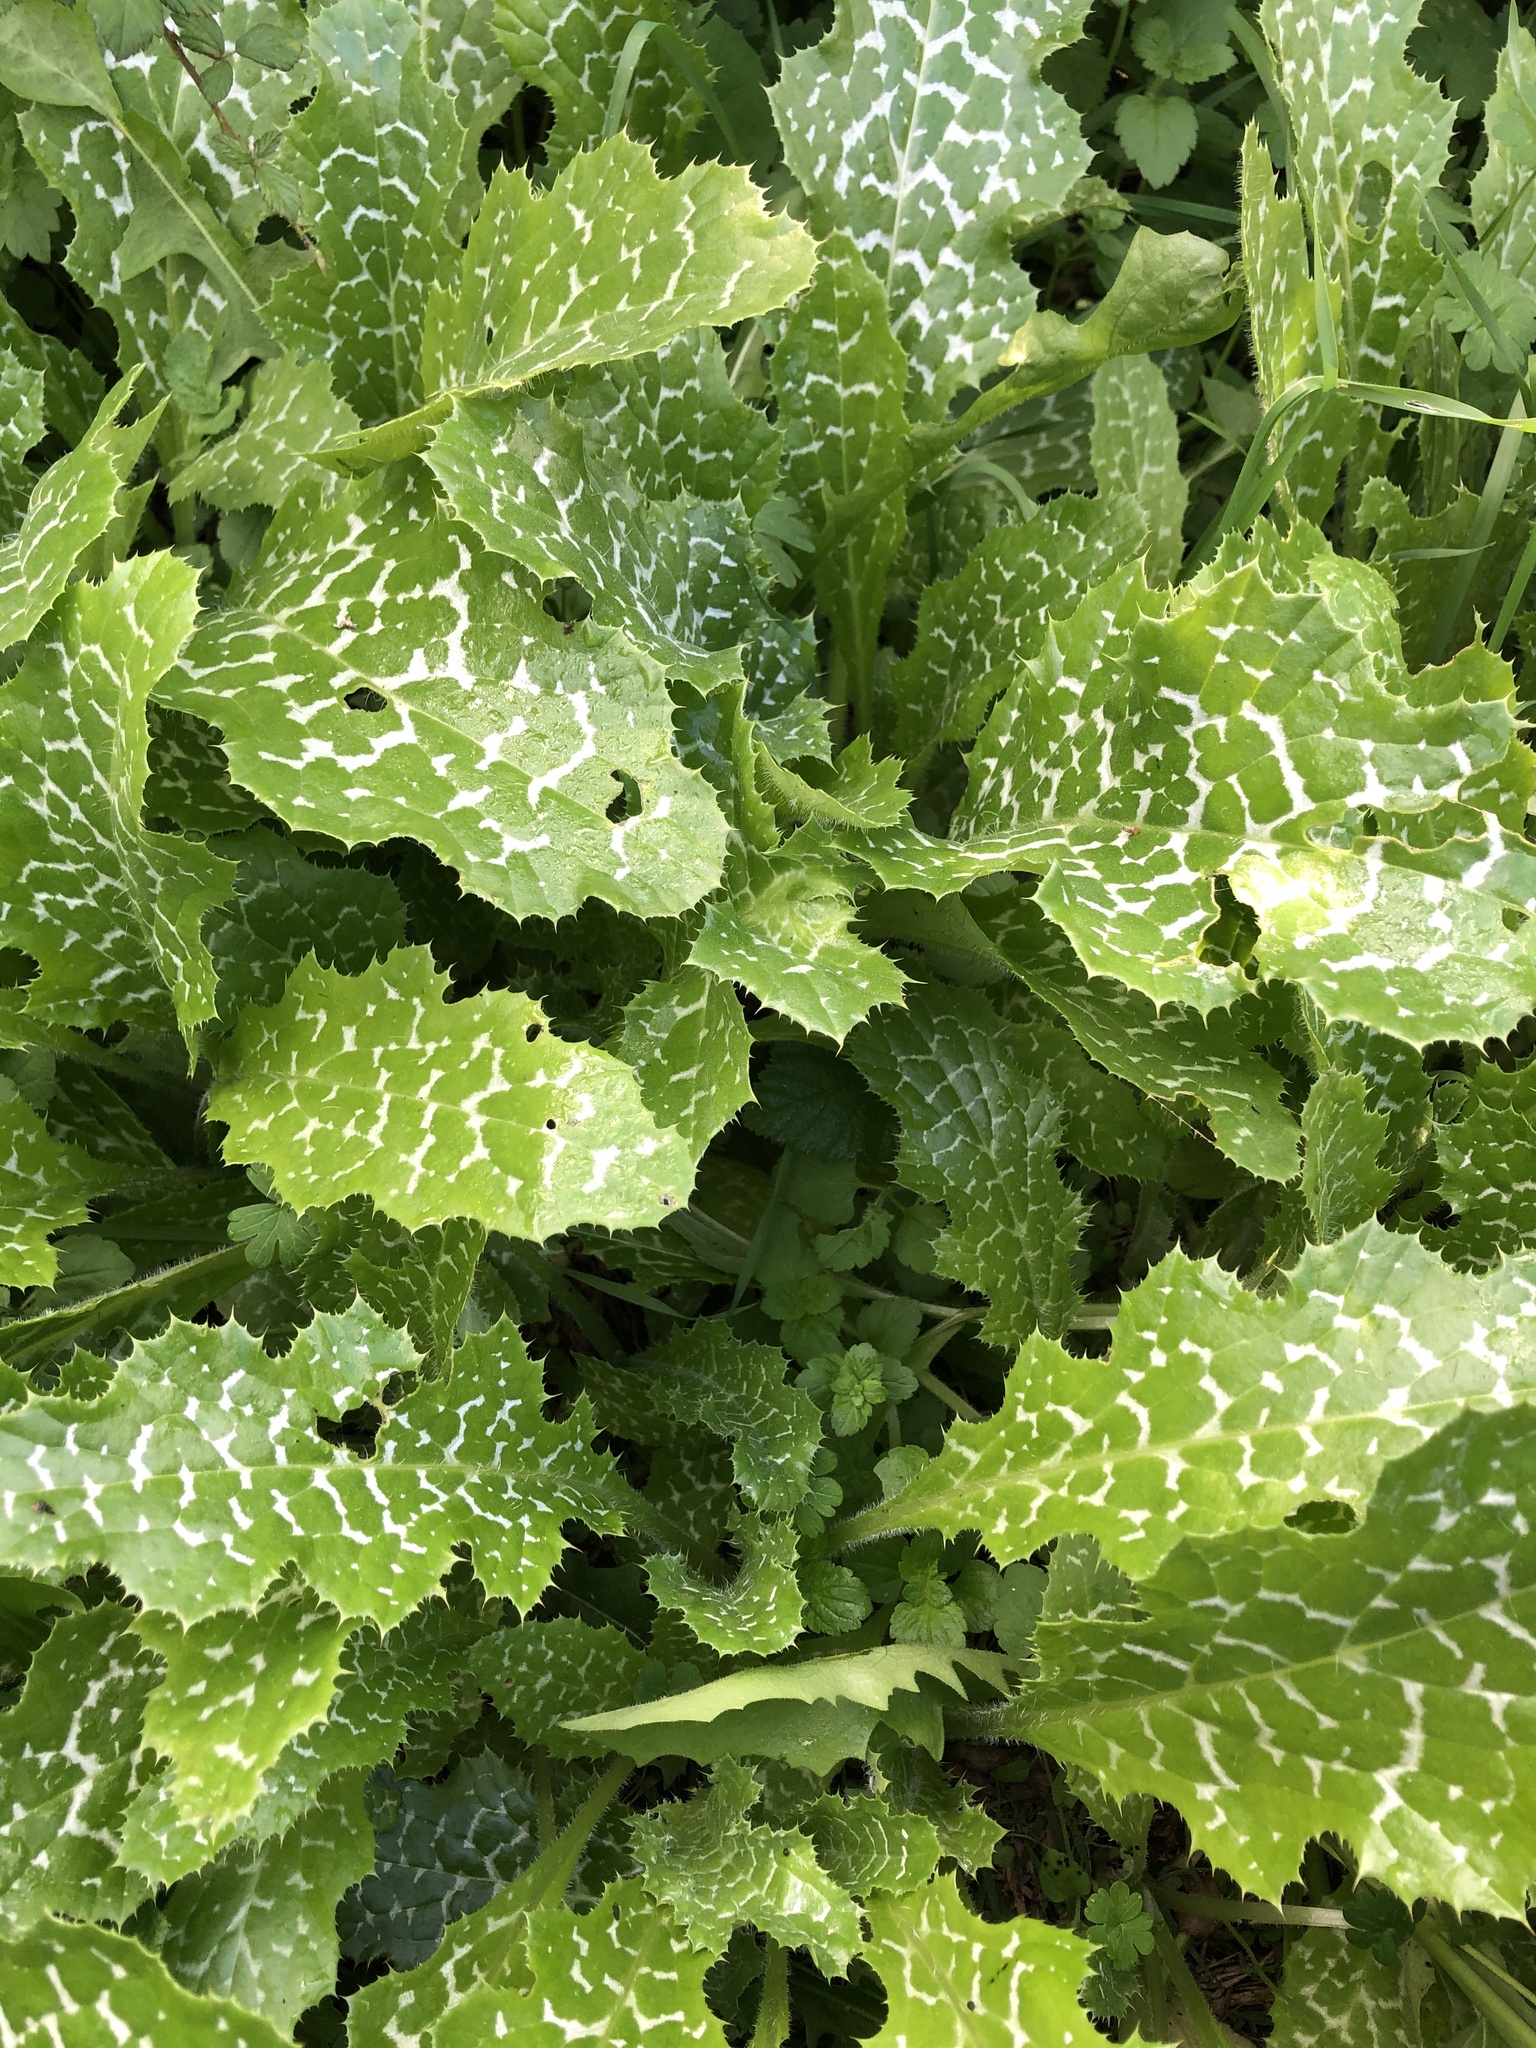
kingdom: Plantae
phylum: Tracheophyta
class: Magnoliopsida
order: Asterales
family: Asteraceae
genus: Silybum
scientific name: Silybum marianum
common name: Milk thistle
